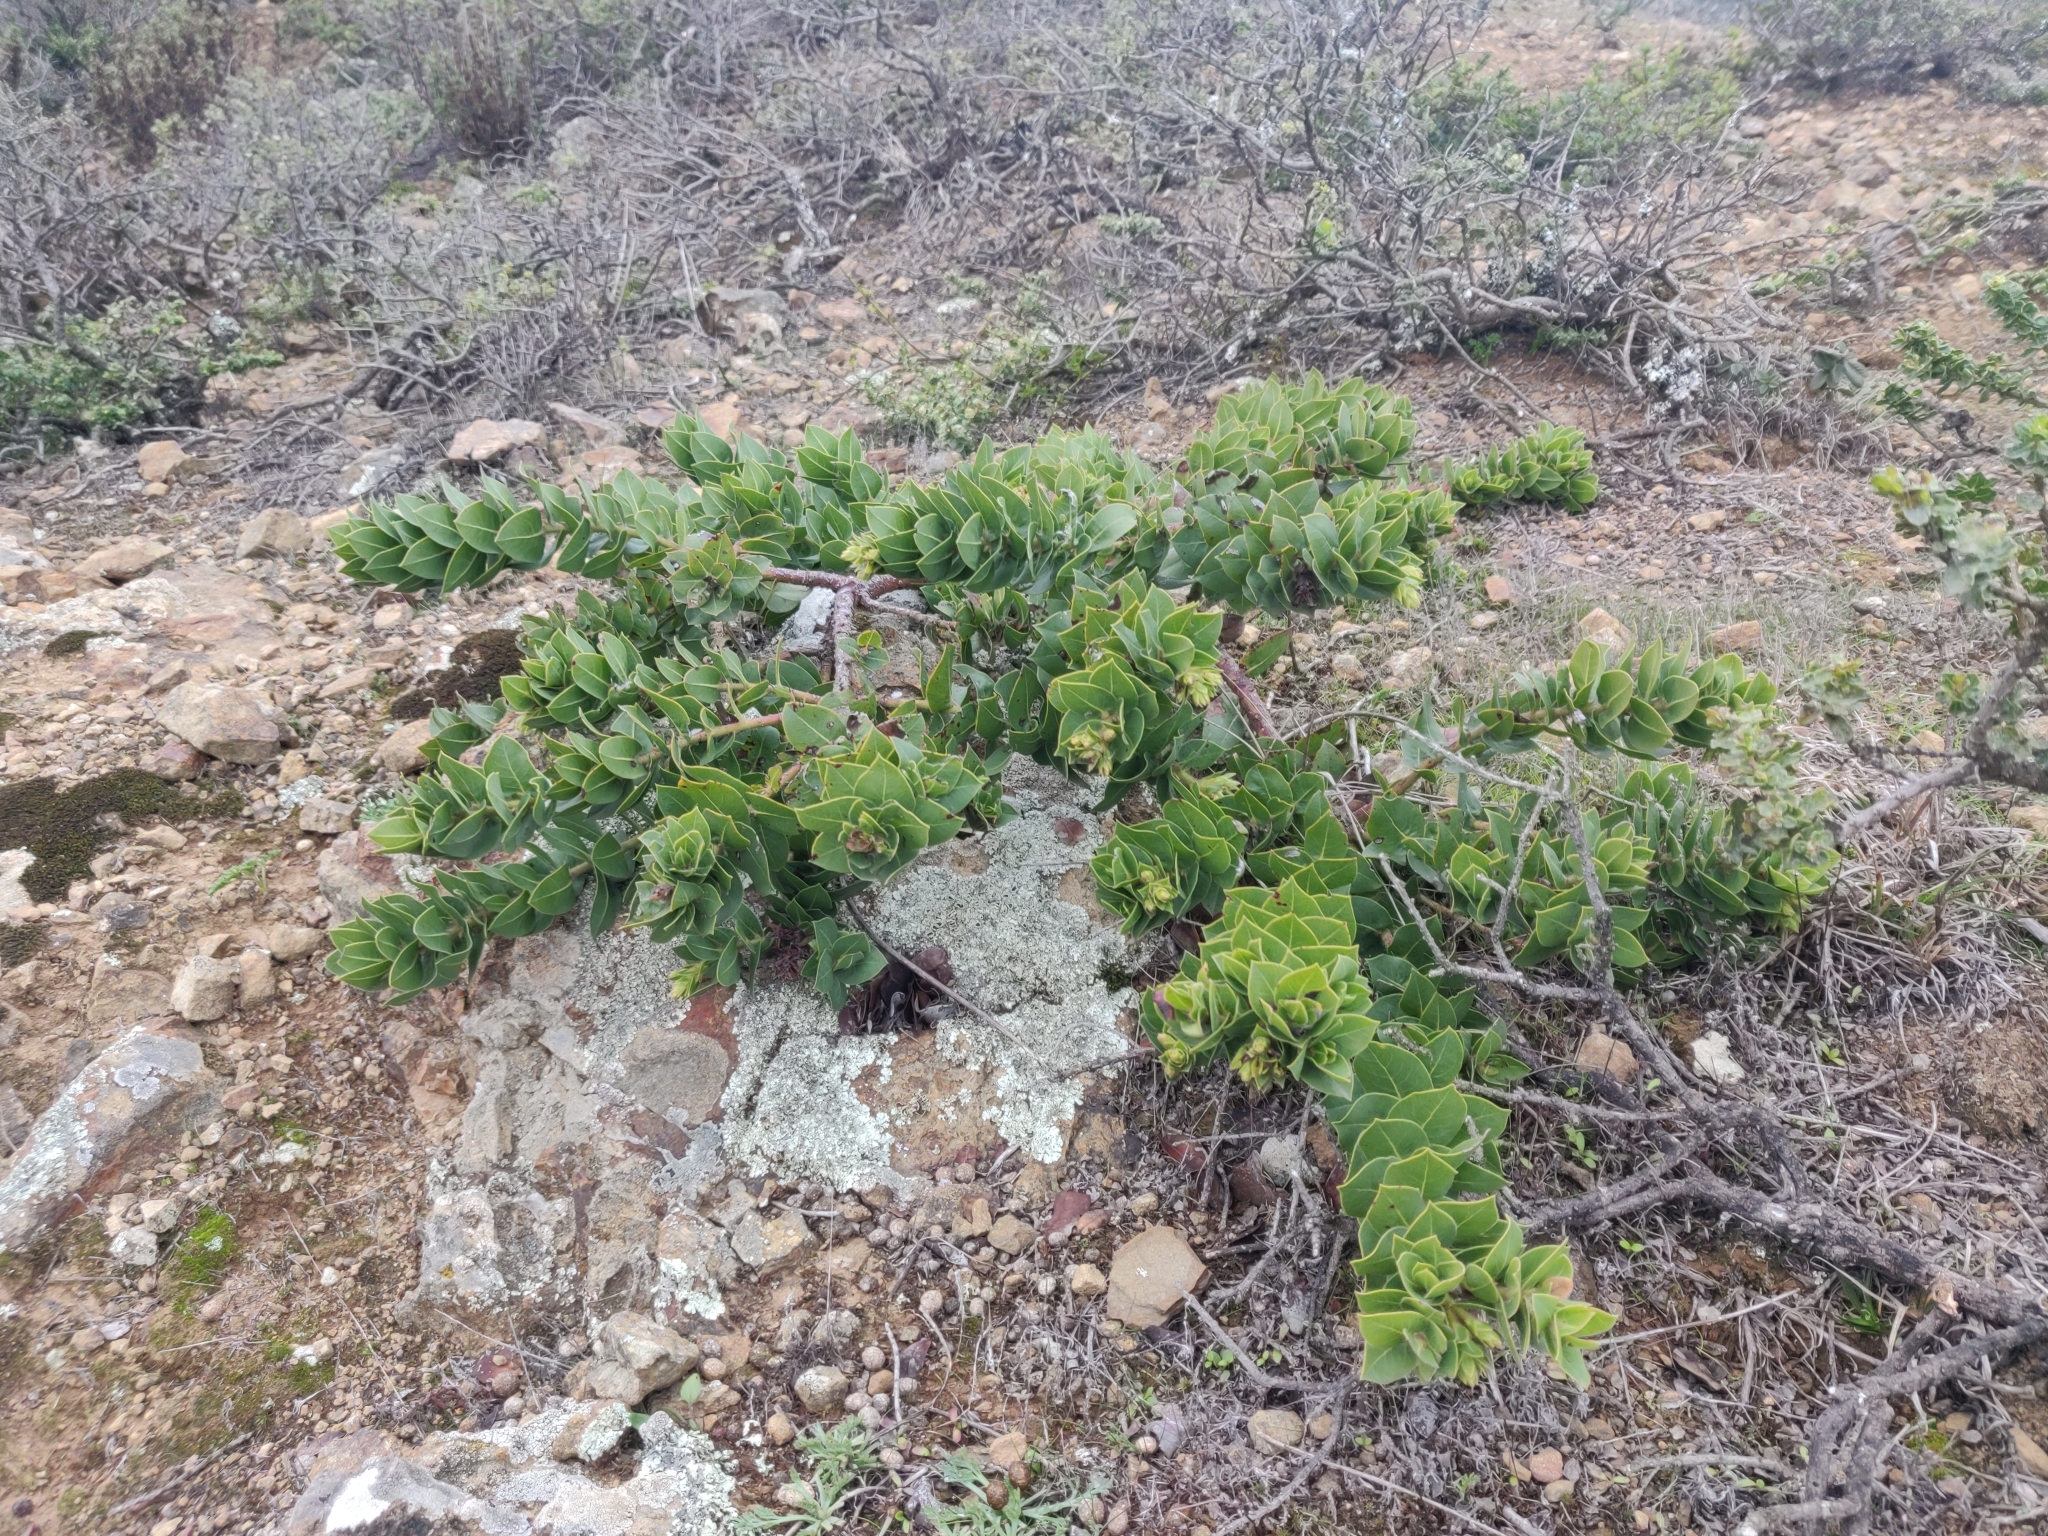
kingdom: Plantae
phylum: Tracheophyta
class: Magnoliopsida
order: Ericales
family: Ericaceae
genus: Arctostaphylos
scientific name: Arctostaphylos imbricata
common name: San bruno mountain manzanita
